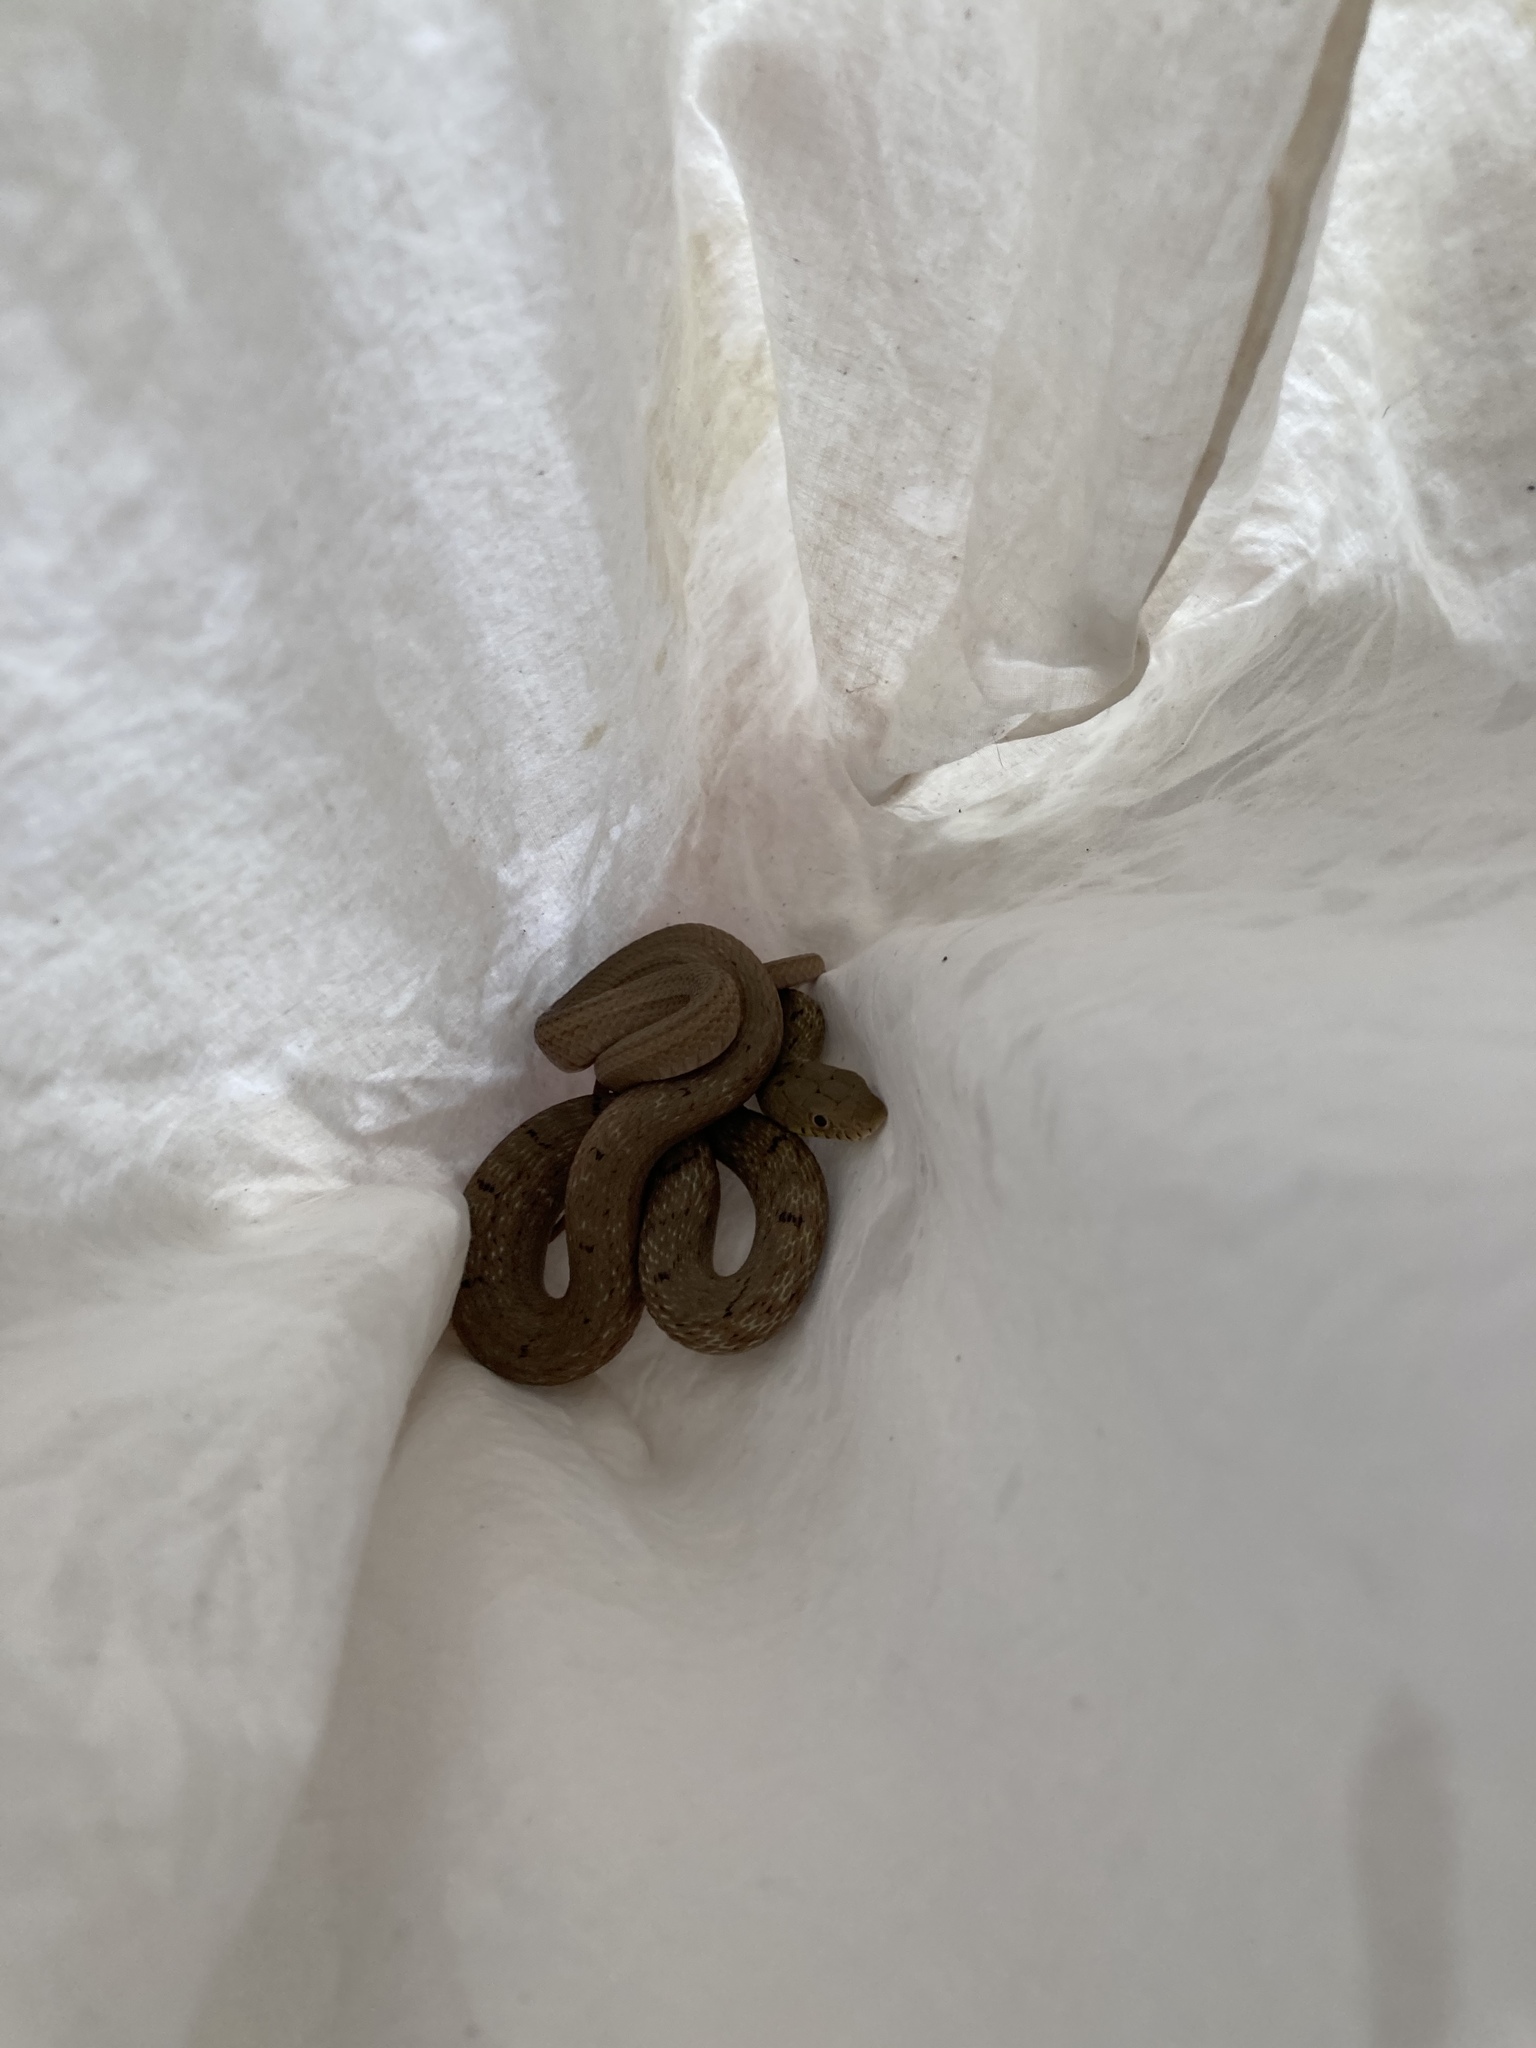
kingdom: Animalia
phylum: Chordata
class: Squamata
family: Colubridae
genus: Elaphe
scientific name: Elaphe carinata
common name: Taiwan stink snake
